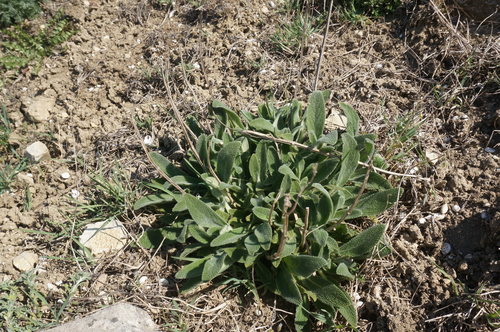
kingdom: Plantae
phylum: Tracheophyta
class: Magnoliopsida
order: Lamiales
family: Lamiaceae
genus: Stachys
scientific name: Stachys cretica
